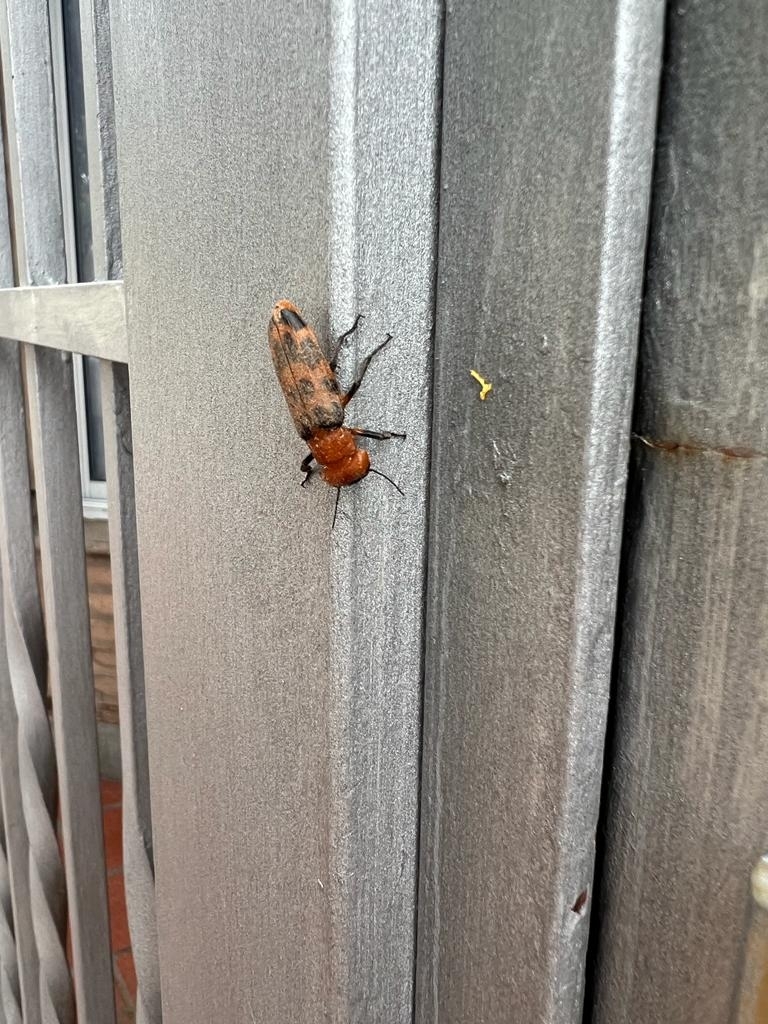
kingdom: Animalia
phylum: Arthropoda
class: Insecta
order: Coleoptera
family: Meloidae
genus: Cissites
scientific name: Cissites maculata
